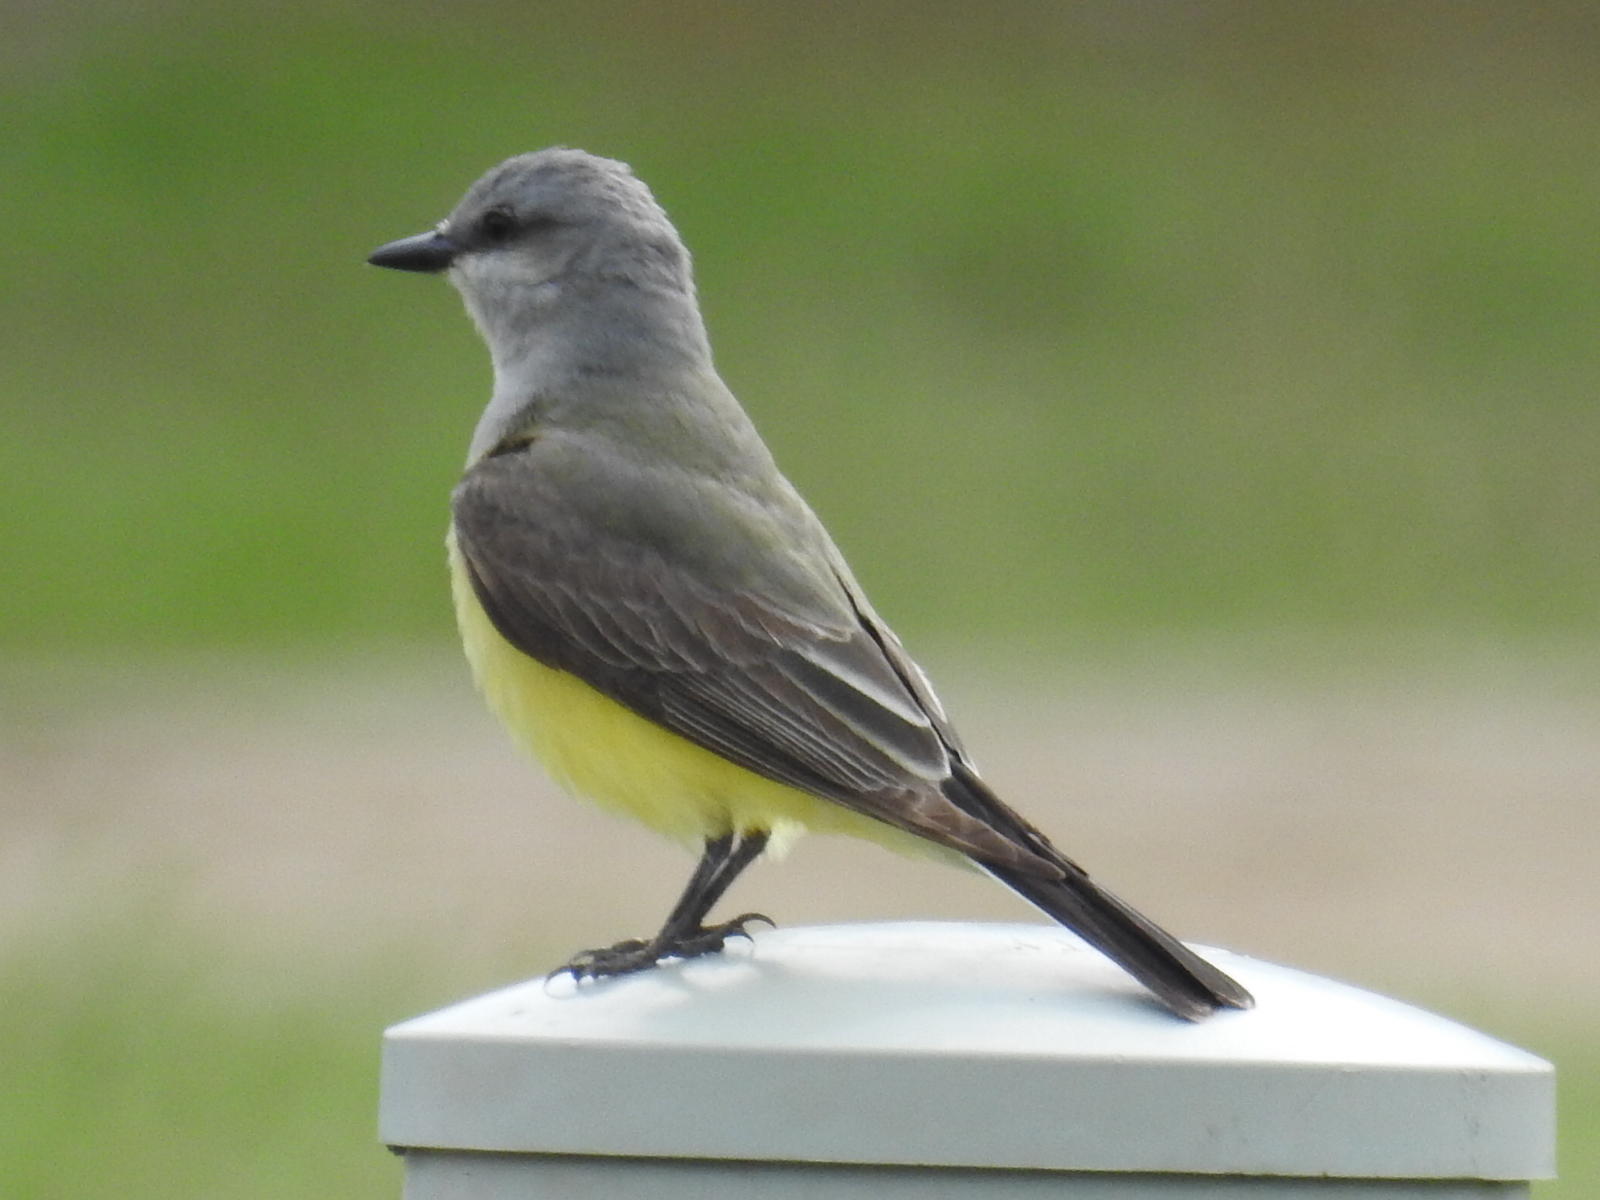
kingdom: Animalia
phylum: Chordata
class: Aves
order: Passeriformes
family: Tyrannidae
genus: Tyrannus
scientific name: Tyrannus verticalis
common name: Western kingbird
